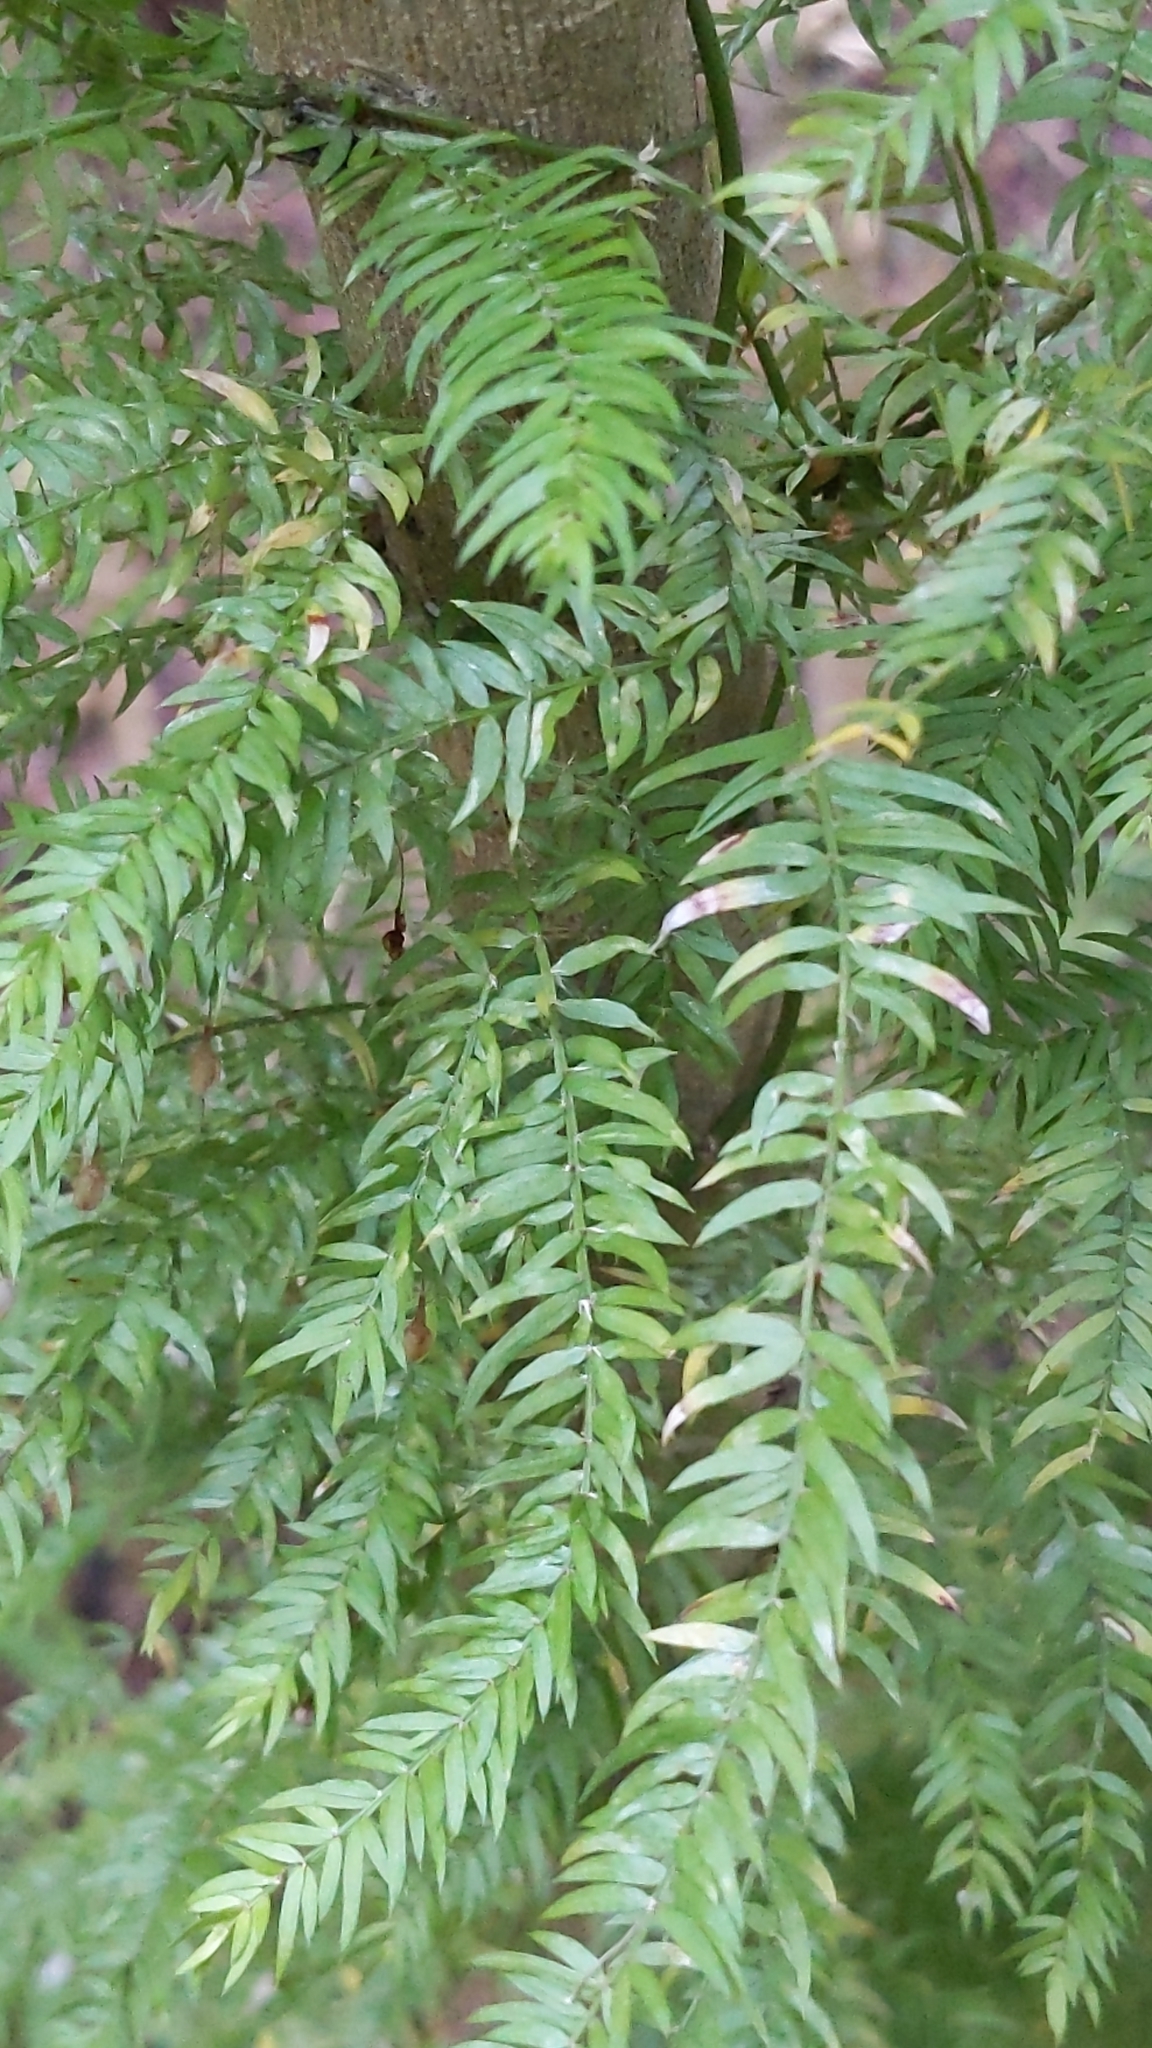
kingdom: Plantae
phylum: Tracheophyta
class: Liliopsida
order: Asparagales
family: Asparagaceae
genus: Asparagus
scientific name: Asparagus scandens
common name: Asparagus-fern
